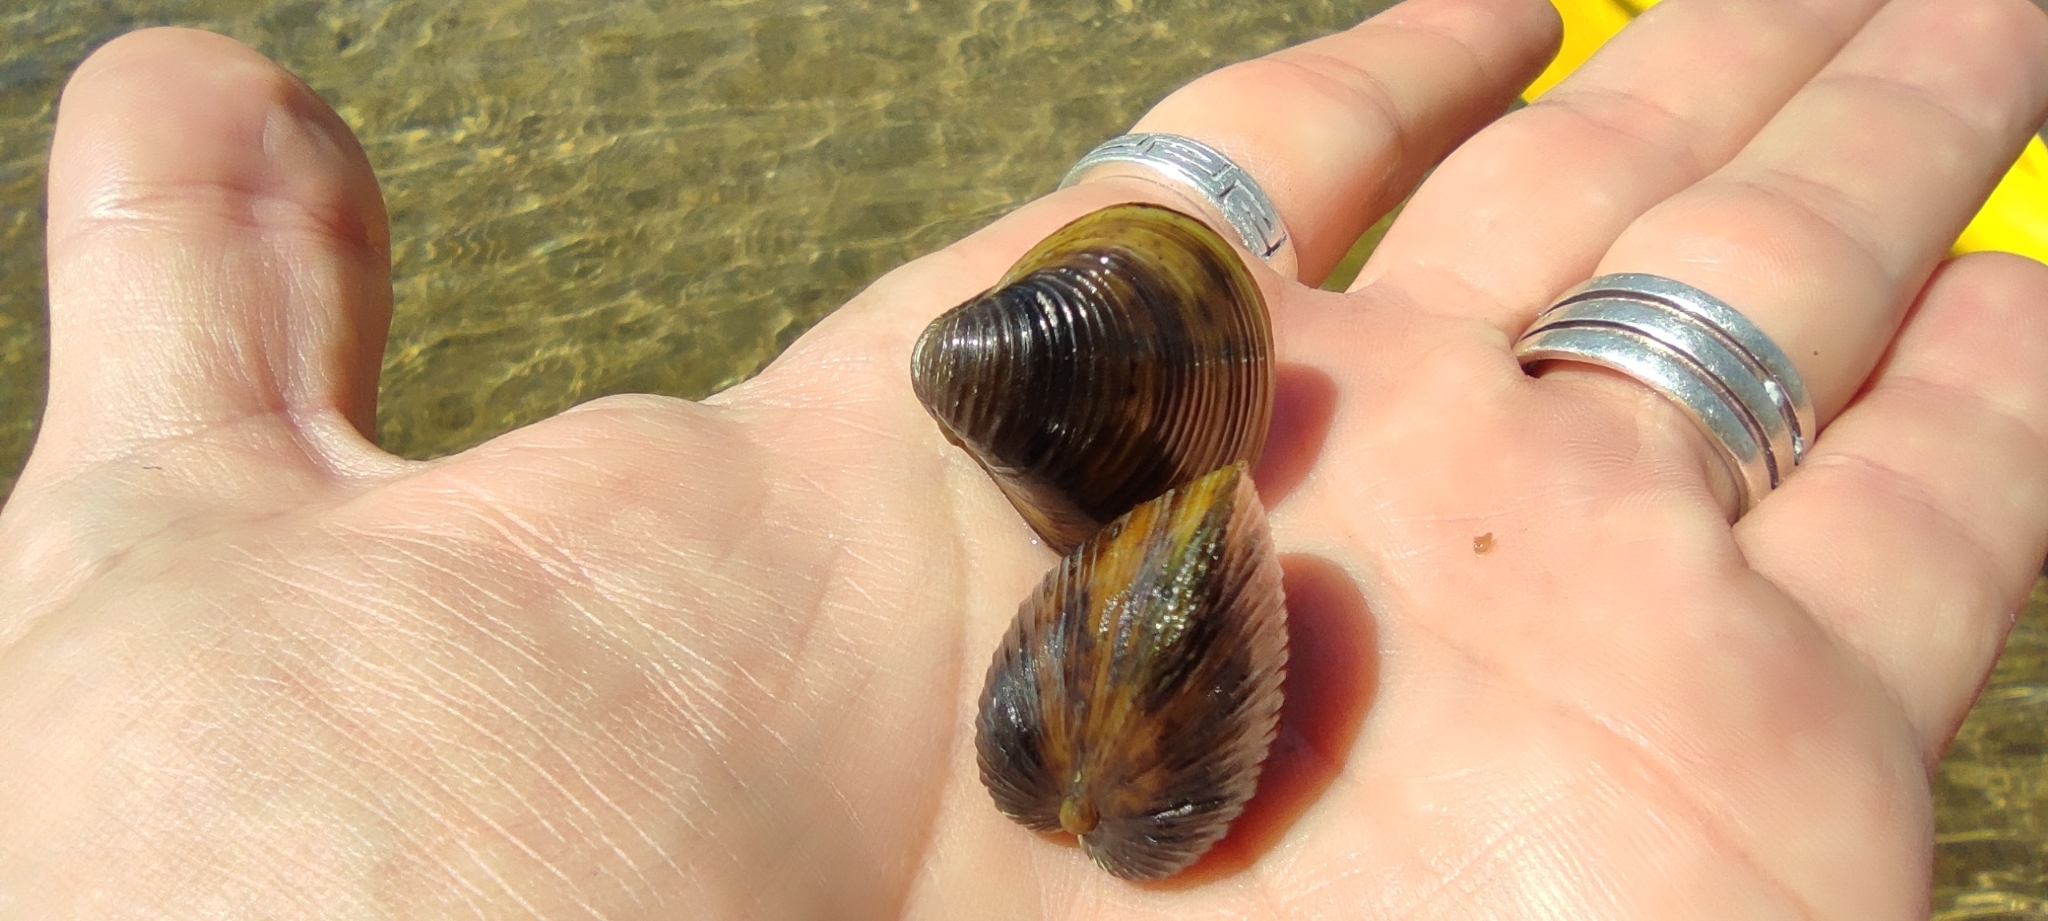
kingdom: Animalia
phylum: Mollusca
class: Bivalvia
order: Venerida
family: Cyrenidae
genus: Corbicula
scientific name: Corbicula fluminea
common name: Asian clam
